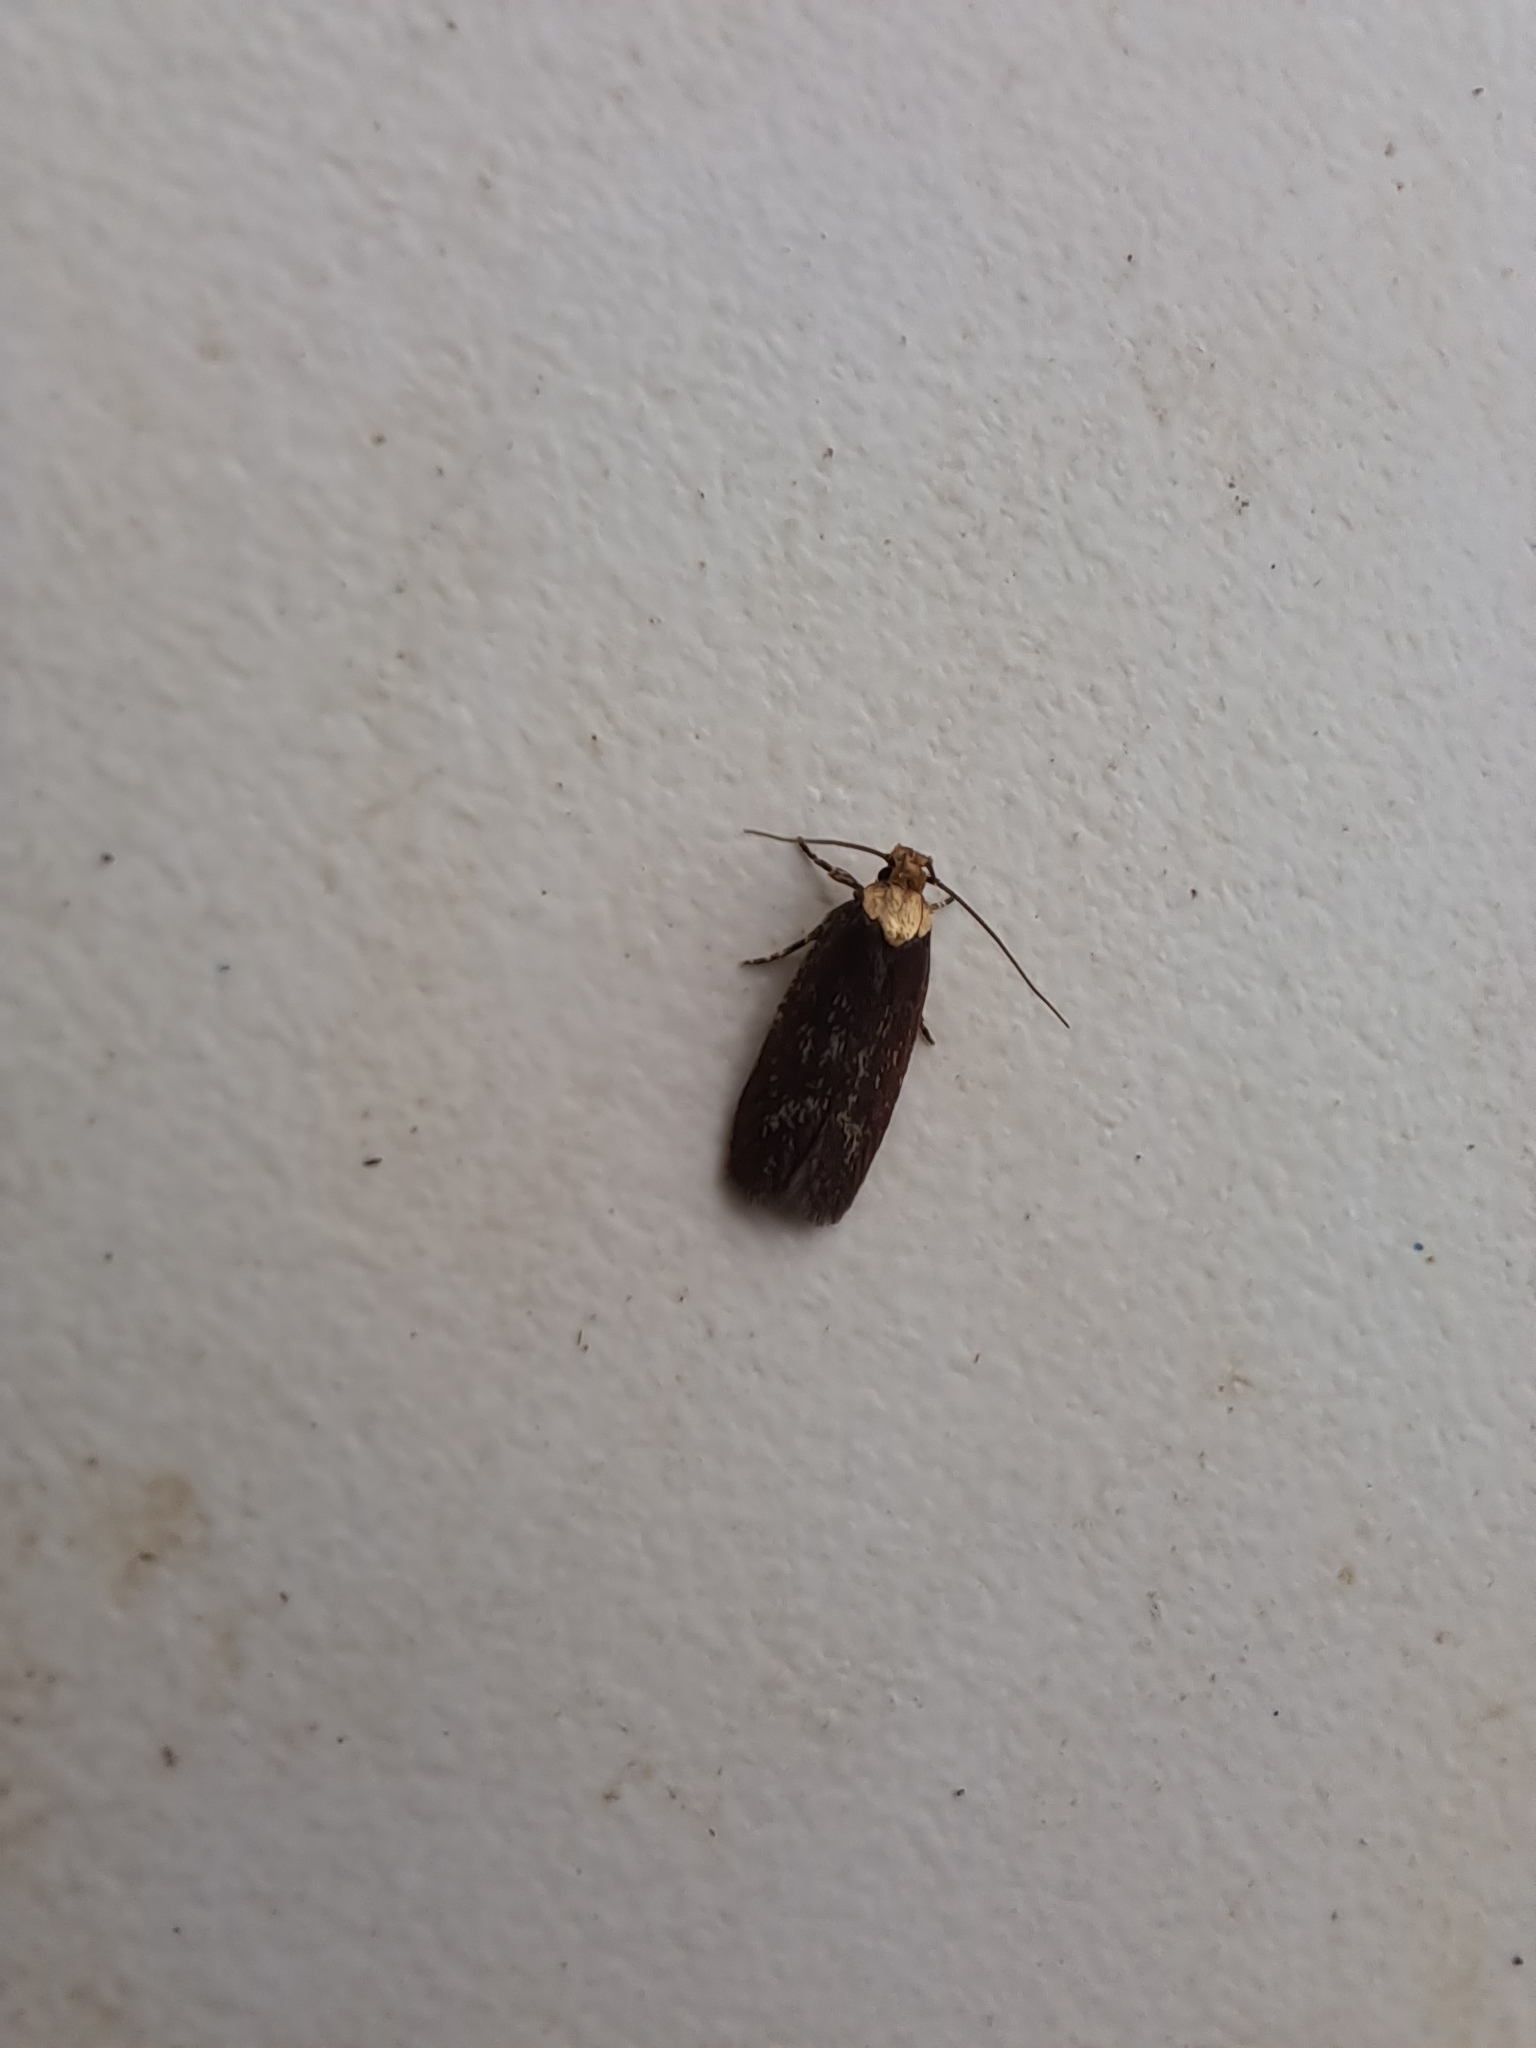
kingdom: Animalia
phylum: Arthropoda
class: Insecta
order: Lepidoptera
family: Depressariidae
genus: Depressaria
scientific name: Depressaria depressana
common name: Lost flat-body
